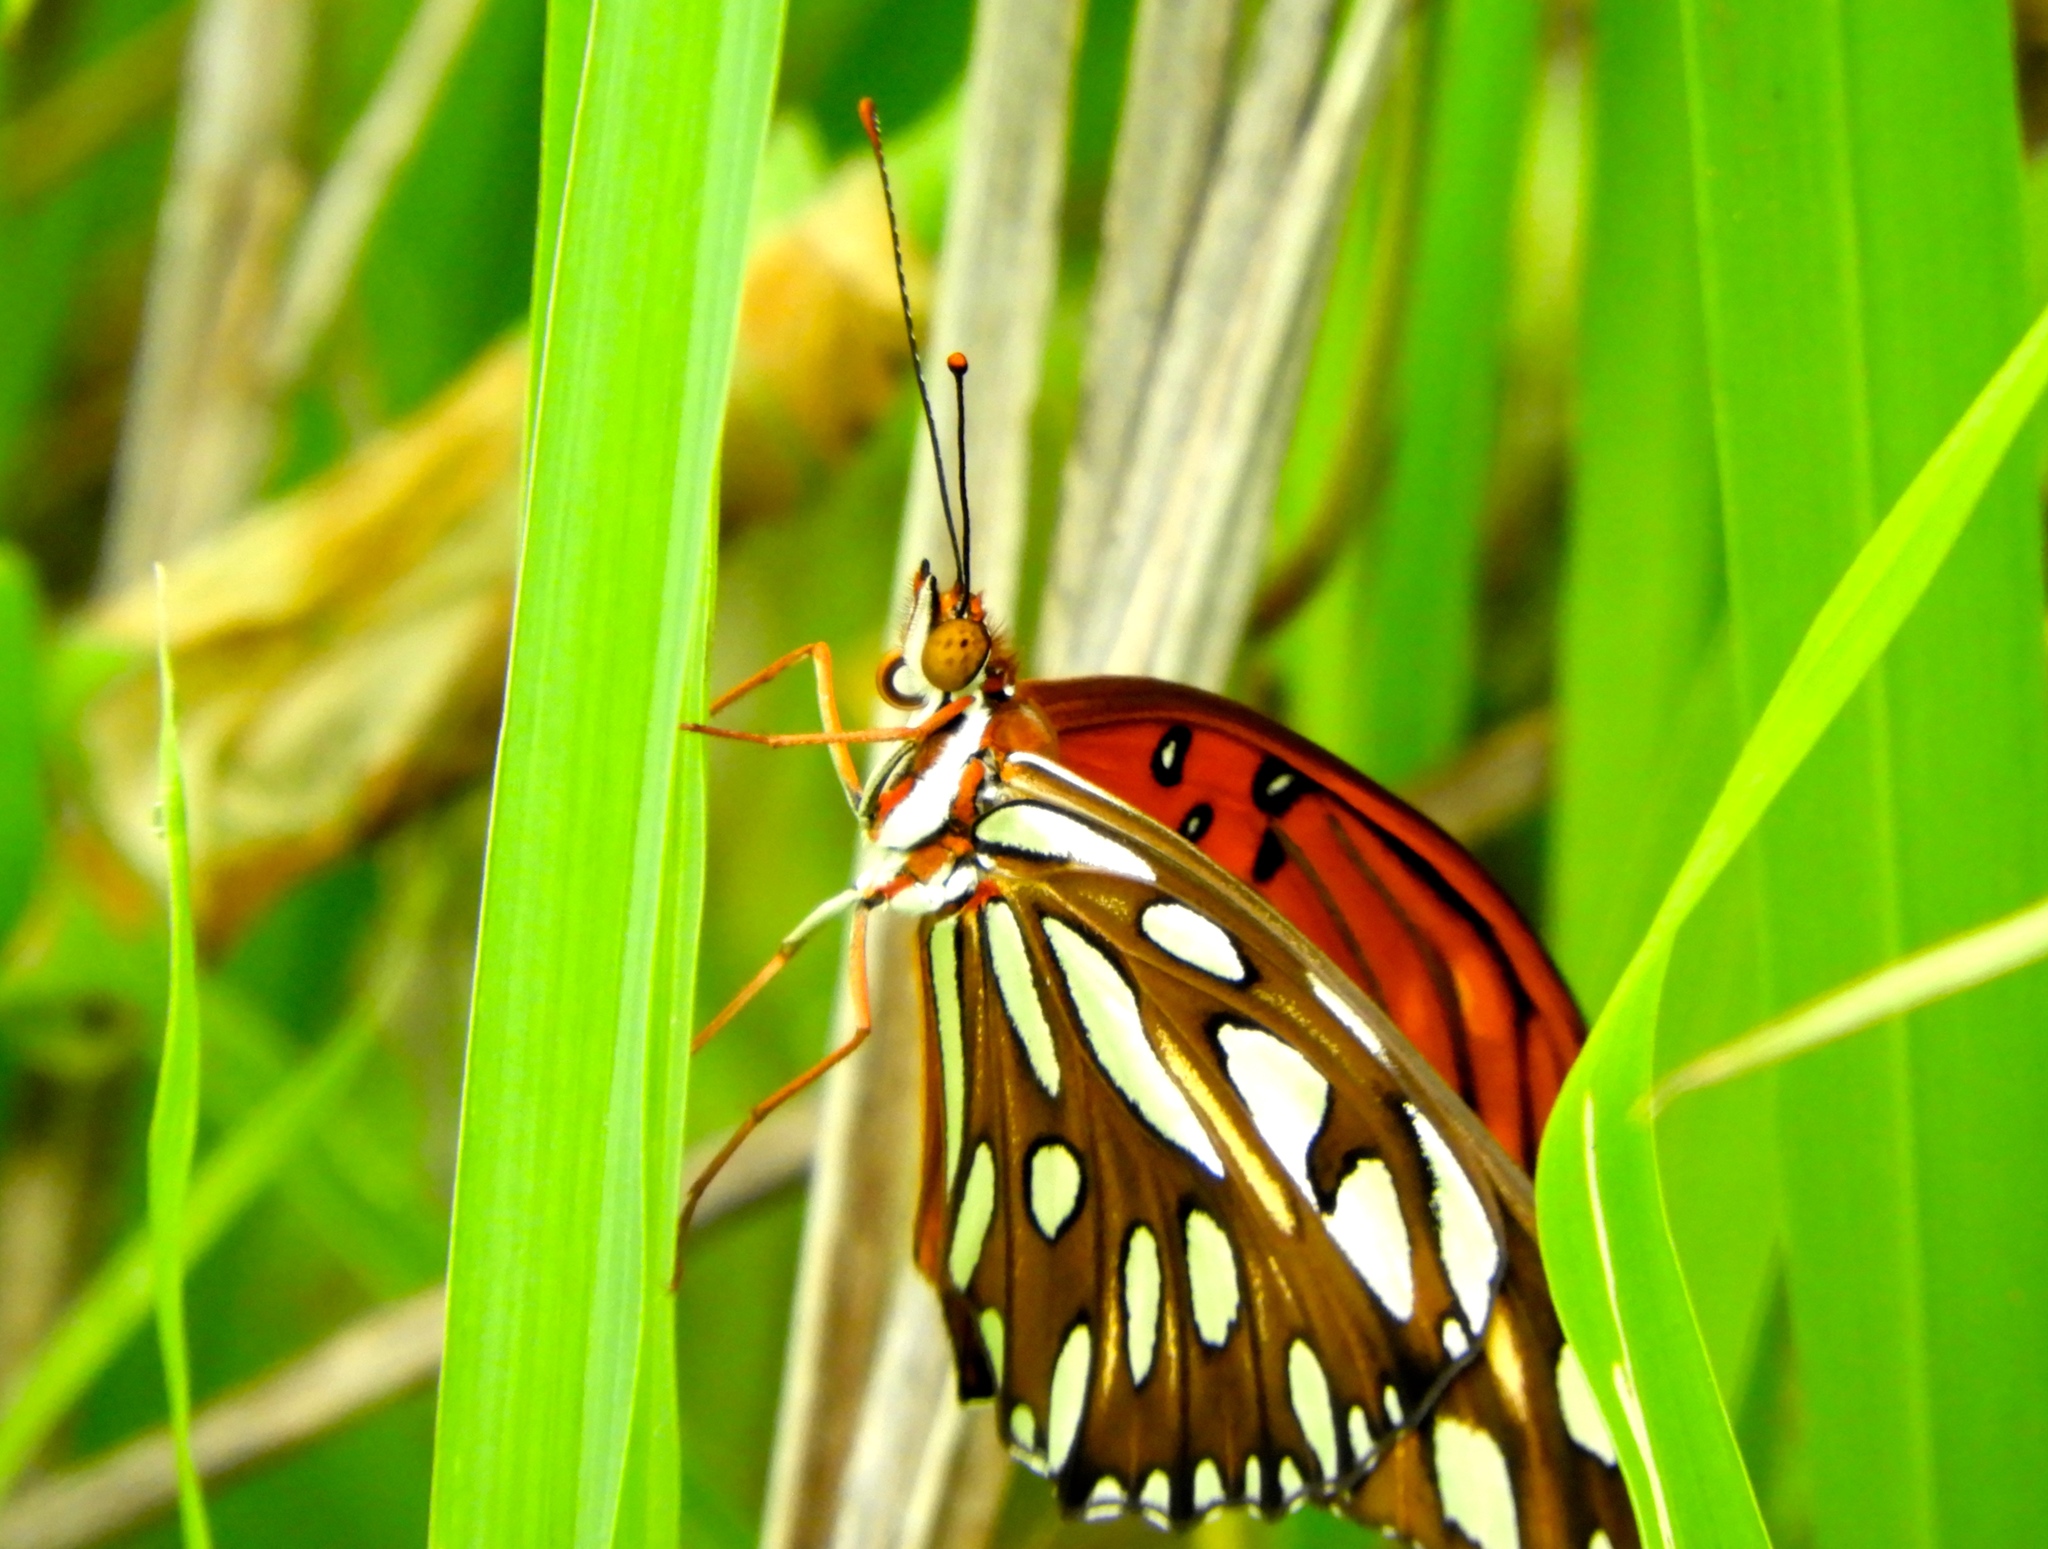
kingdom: Animalia
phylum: Arthropoda
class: Insecta
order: Lepidoptera
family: Nymphalidae
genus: Dione
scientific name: Dione vanillae
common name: Gulf fritillary
